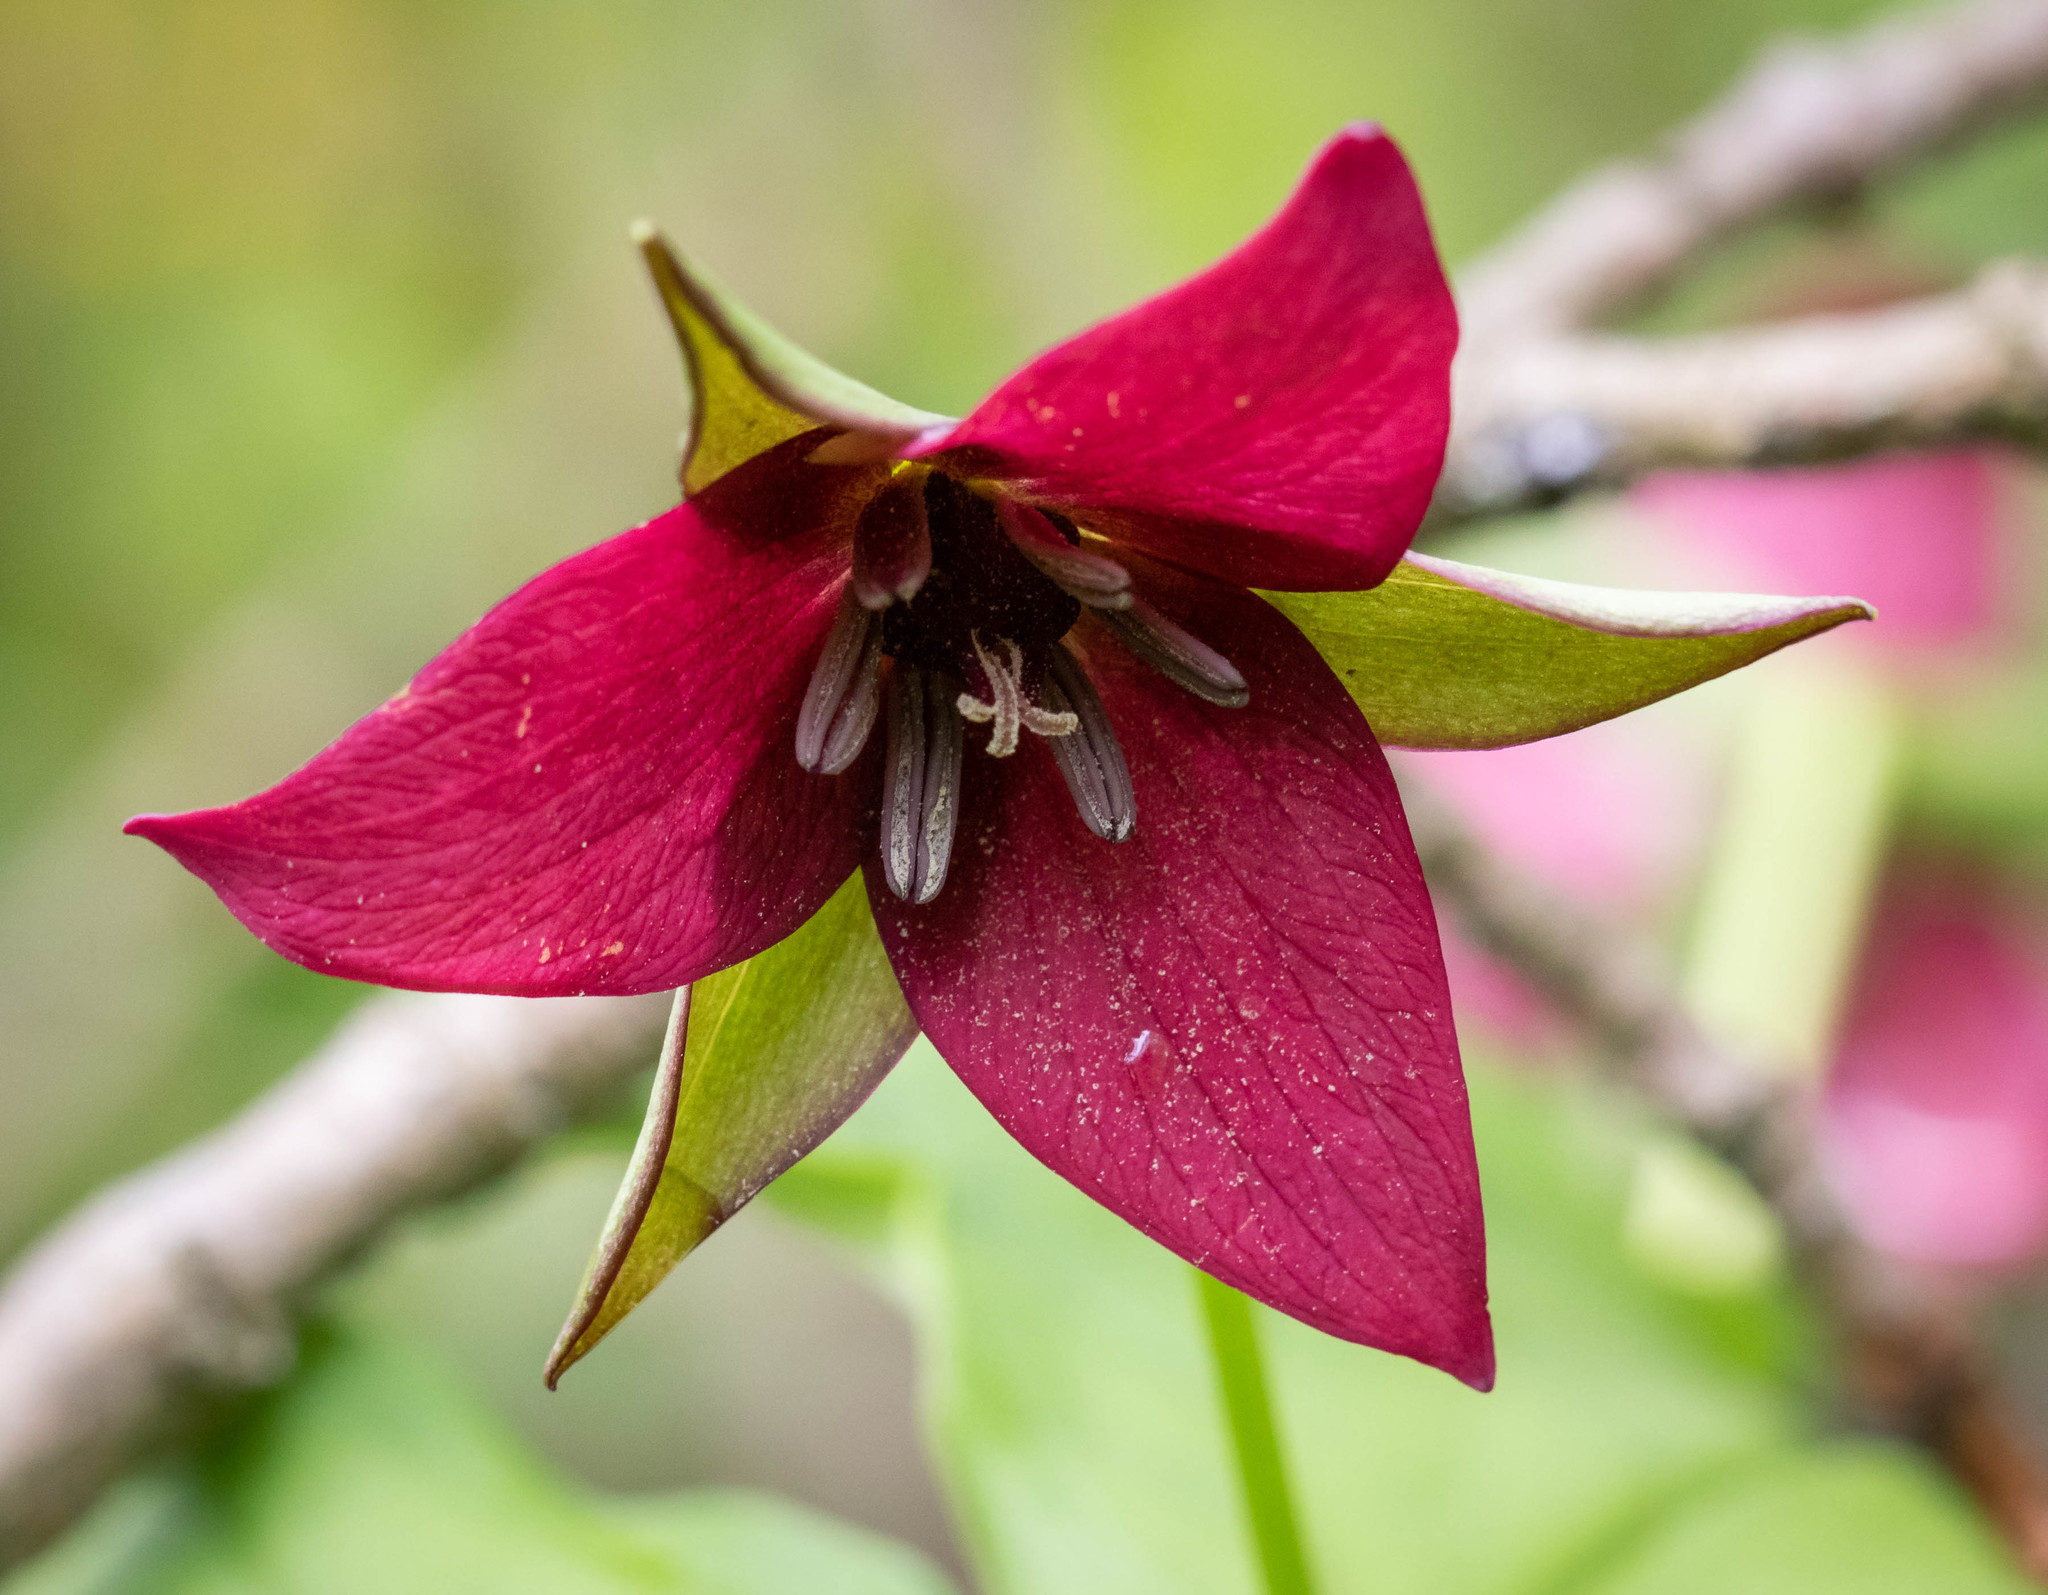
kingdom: Plantae
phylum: Tracheophyta
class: Liliopsida
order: Liliales
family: Melanthiaceae
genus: Trillium
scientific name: Trillium erectum
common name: Purple trillium
